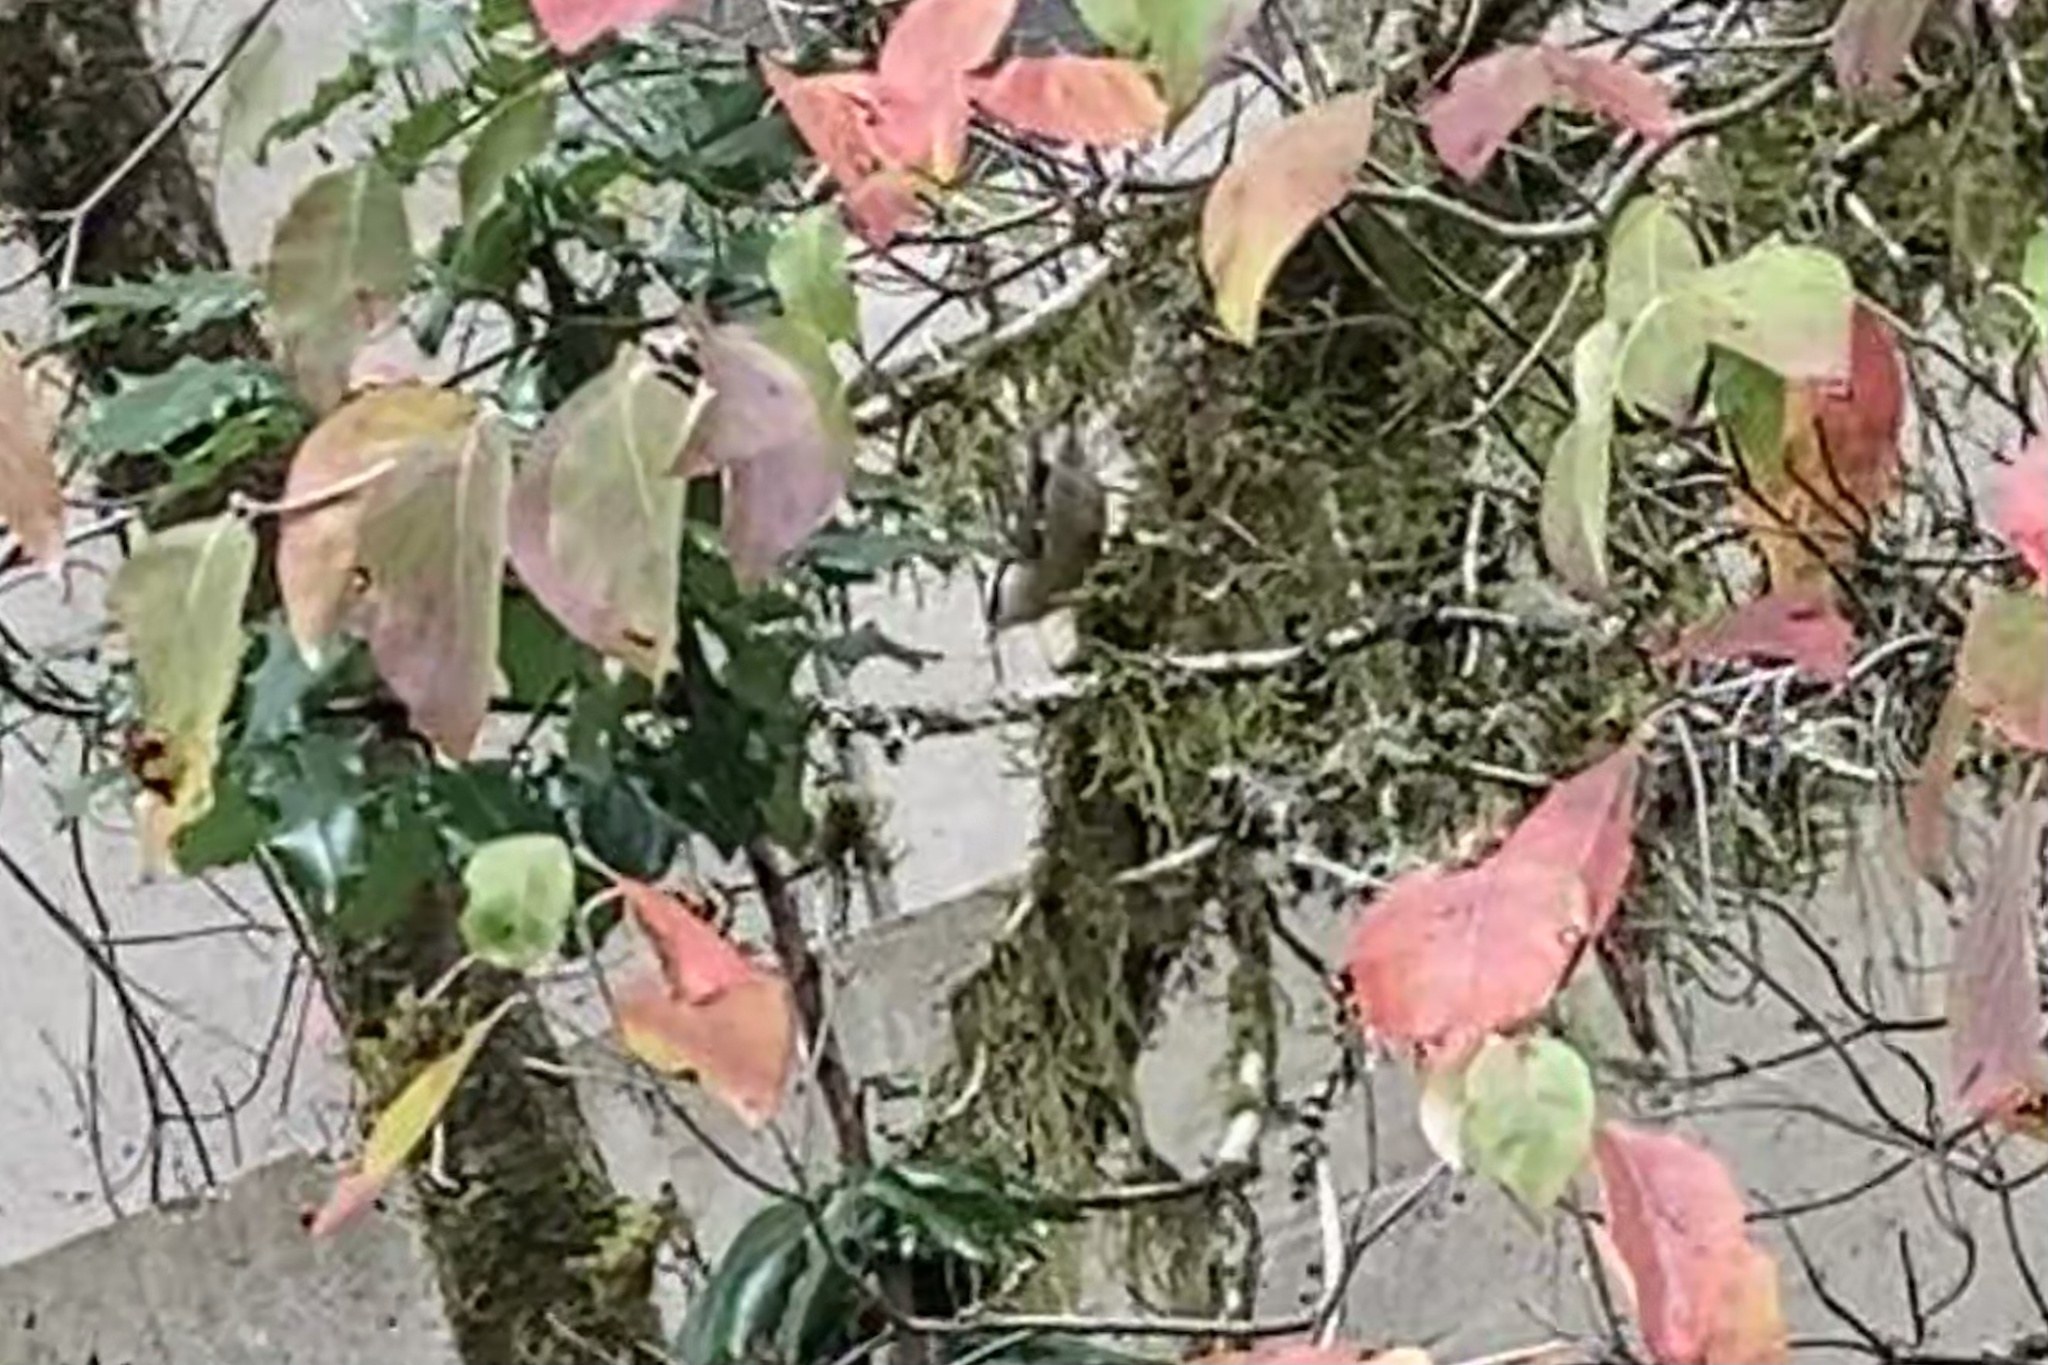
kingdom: Animalia
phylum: Chordata
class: Aves
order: Passeriformes
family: Sittidae
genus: Sitta
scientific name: Sitta canadensis
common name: Red-breasted nuthatch
